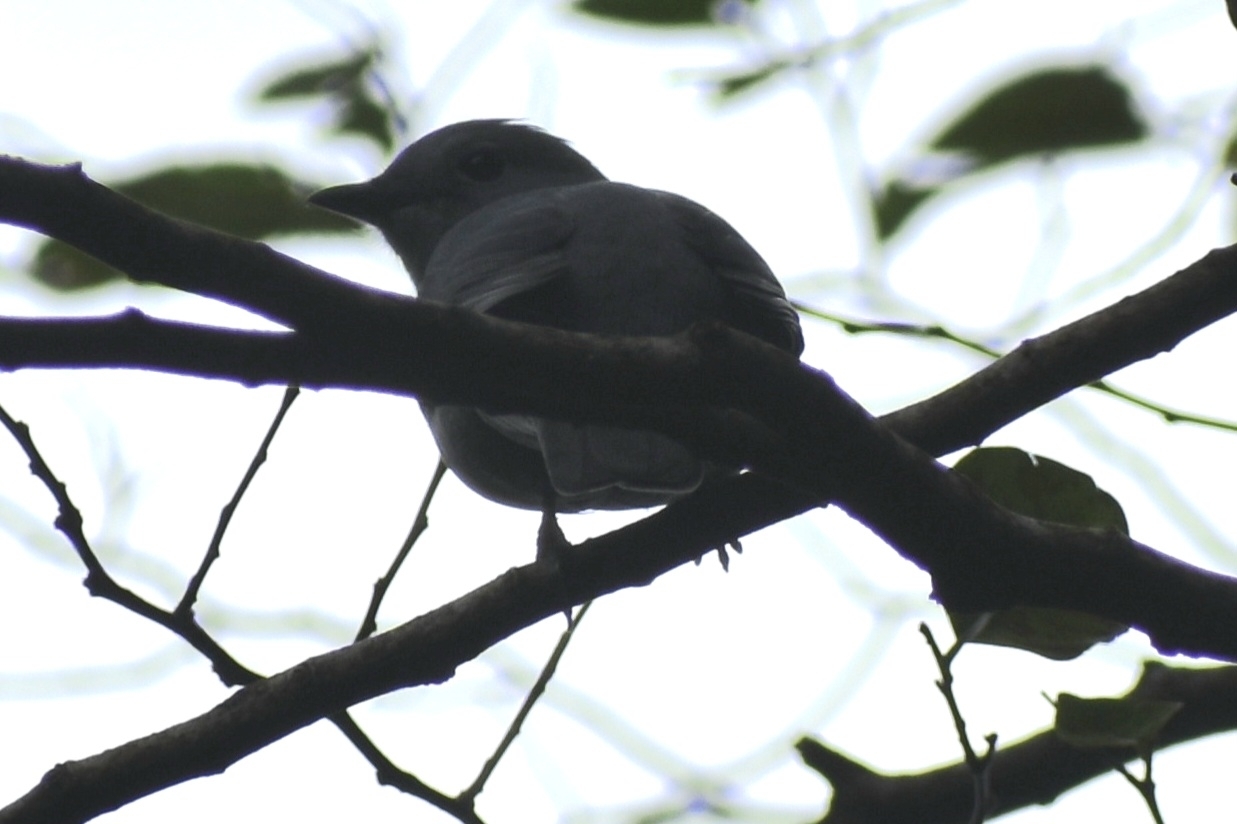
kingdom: Animalia
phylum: Chordata
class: Aves
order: Passeriformes
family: Campephagidae
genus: Coracina
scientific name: Coracina caesia
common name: Grey cuckooshrike
